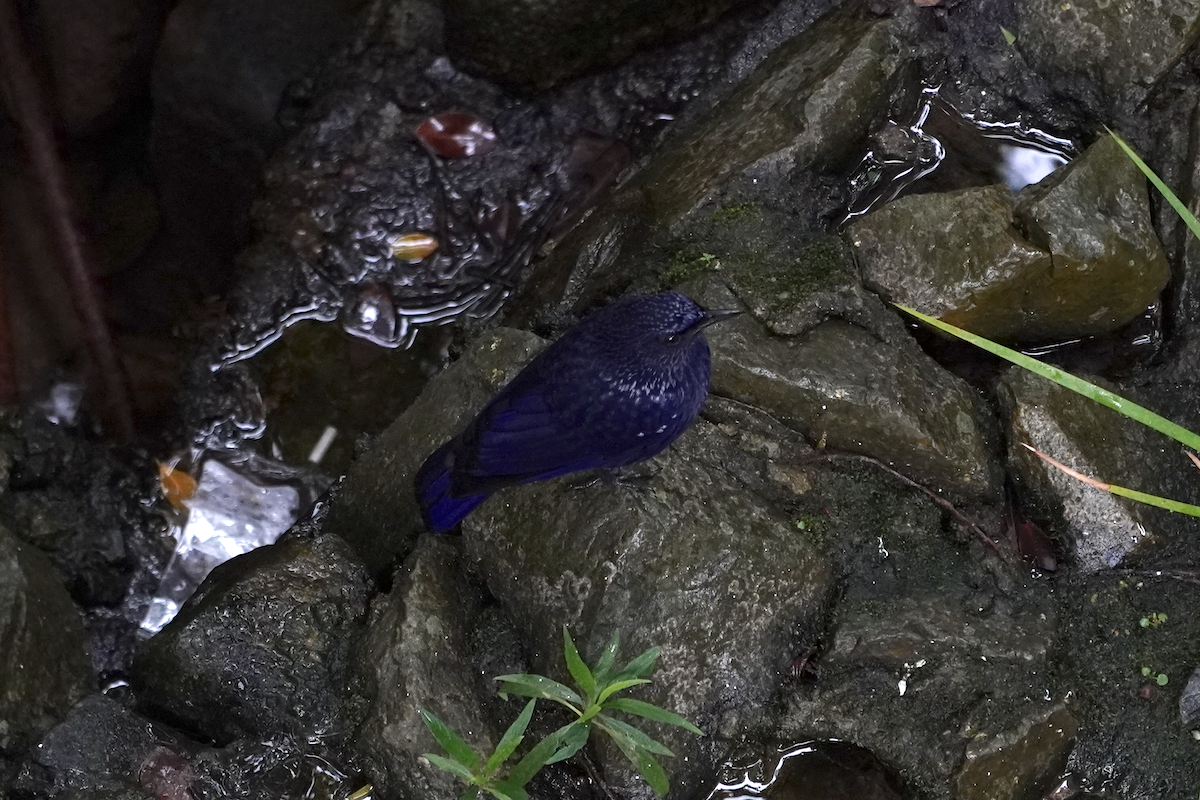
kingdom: Animalia
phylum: Chordata
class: Aves
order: Passeriformes
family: Muscicapidae
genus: Myophonus
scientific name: Myophonus caeruleus
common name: Blue whistling-thrush
